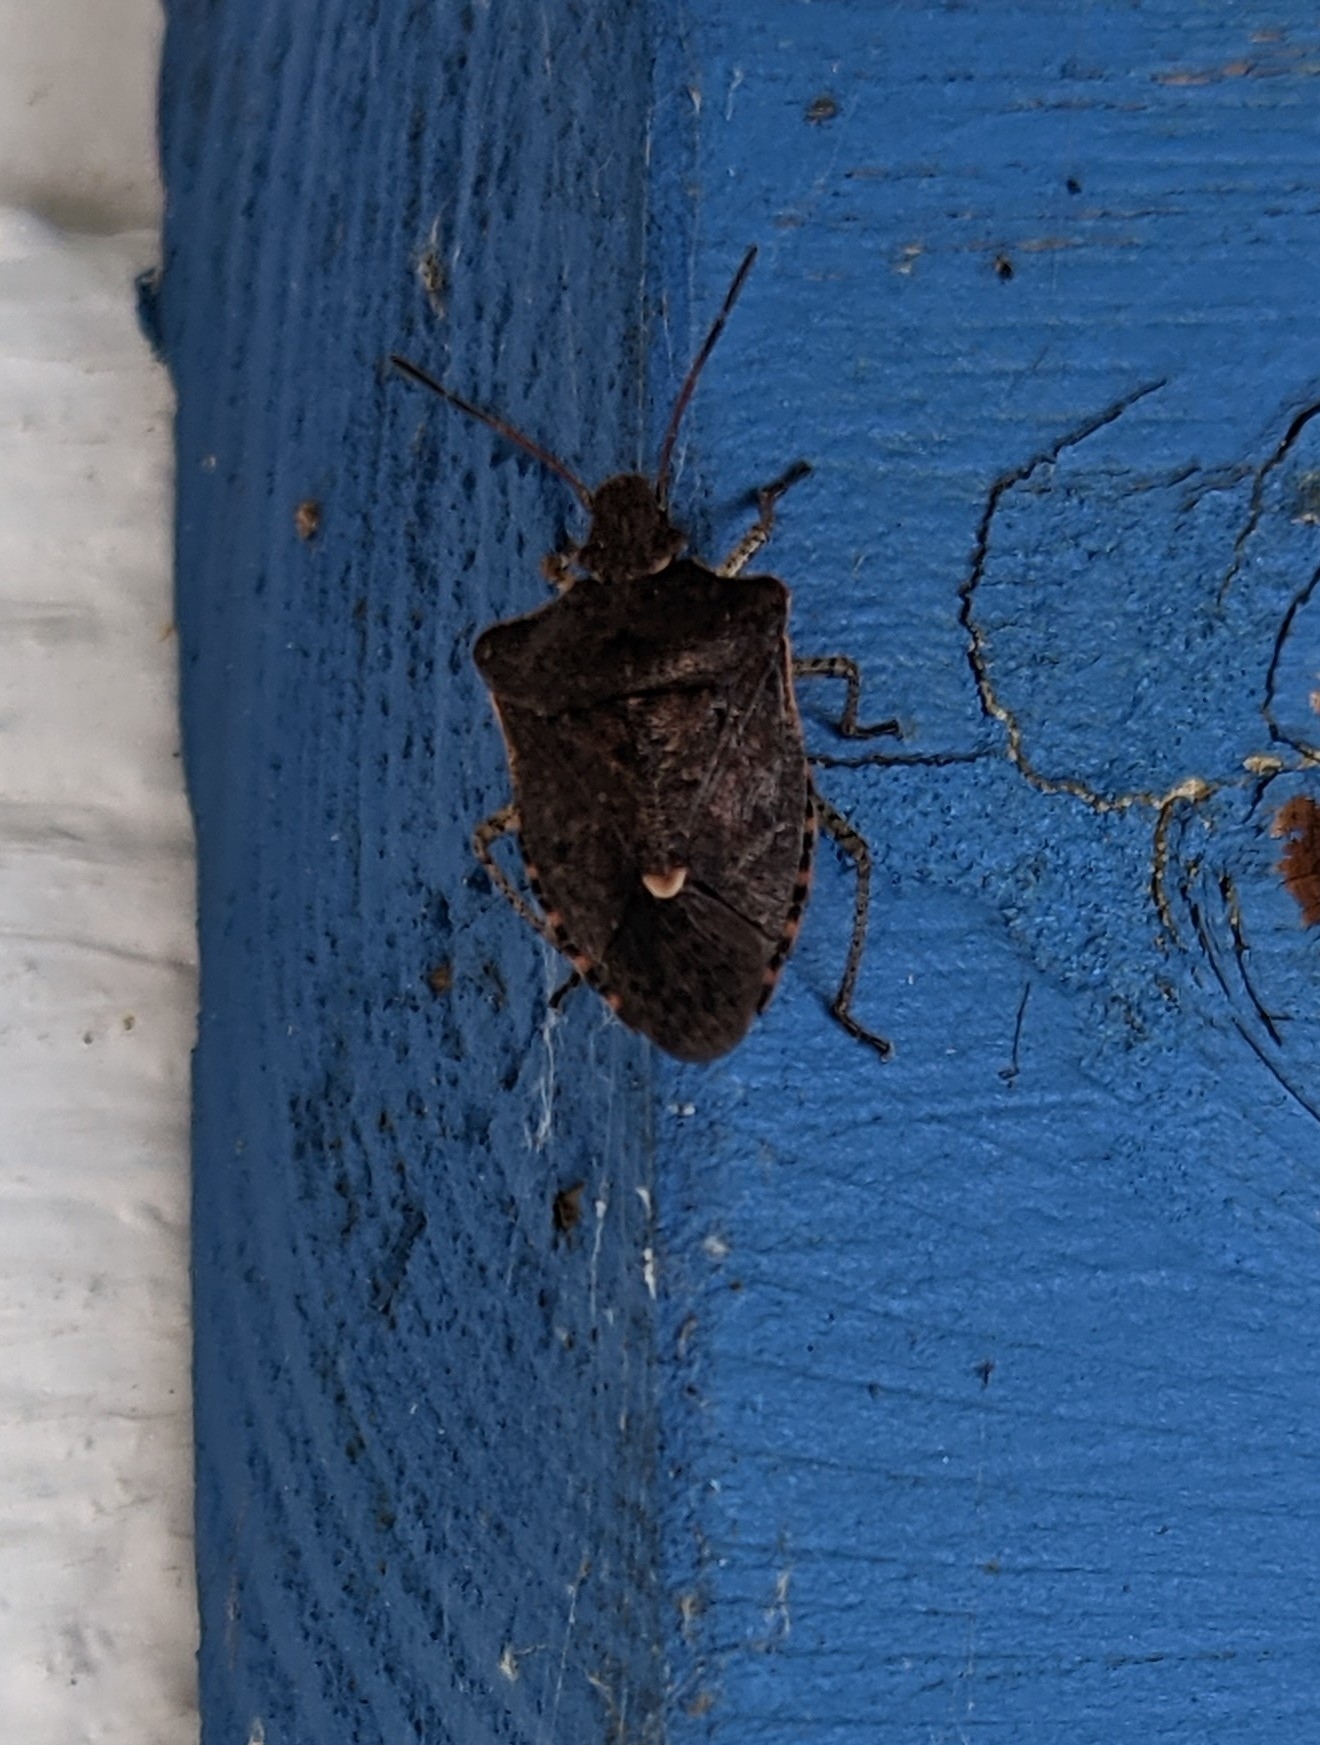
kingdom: Animalia
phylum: Arthropoda
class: Insecta
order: Hemiptera
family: Pentatomidae
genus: Euschistus
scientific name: Euschistus tristigmus
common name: Dusky stink bug
